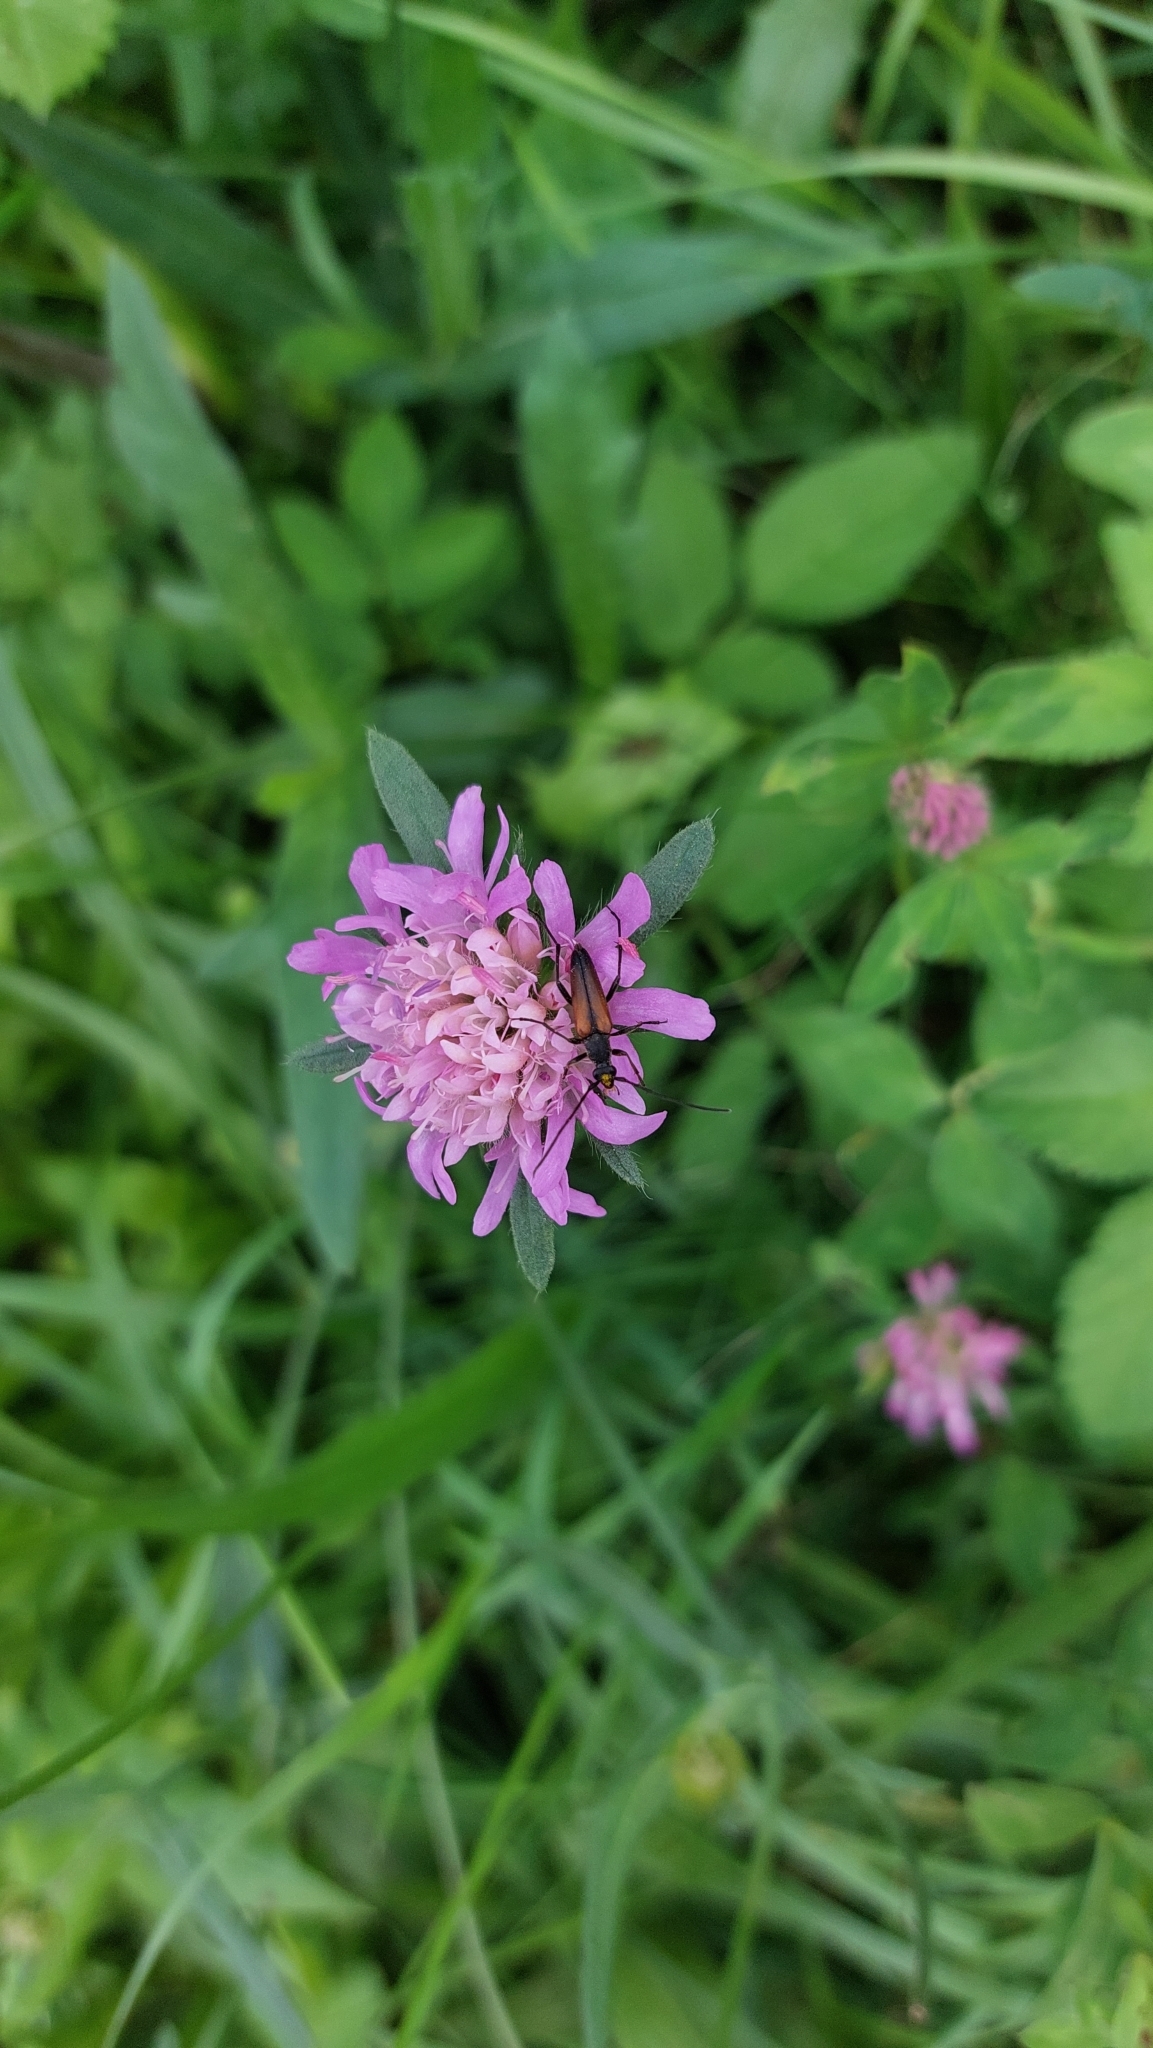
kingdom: Animalia
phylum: Arthropoda
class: Insecta
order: Coleoptera
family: Cerambycidae
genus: Stenurella
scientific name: Stenurella melanura
